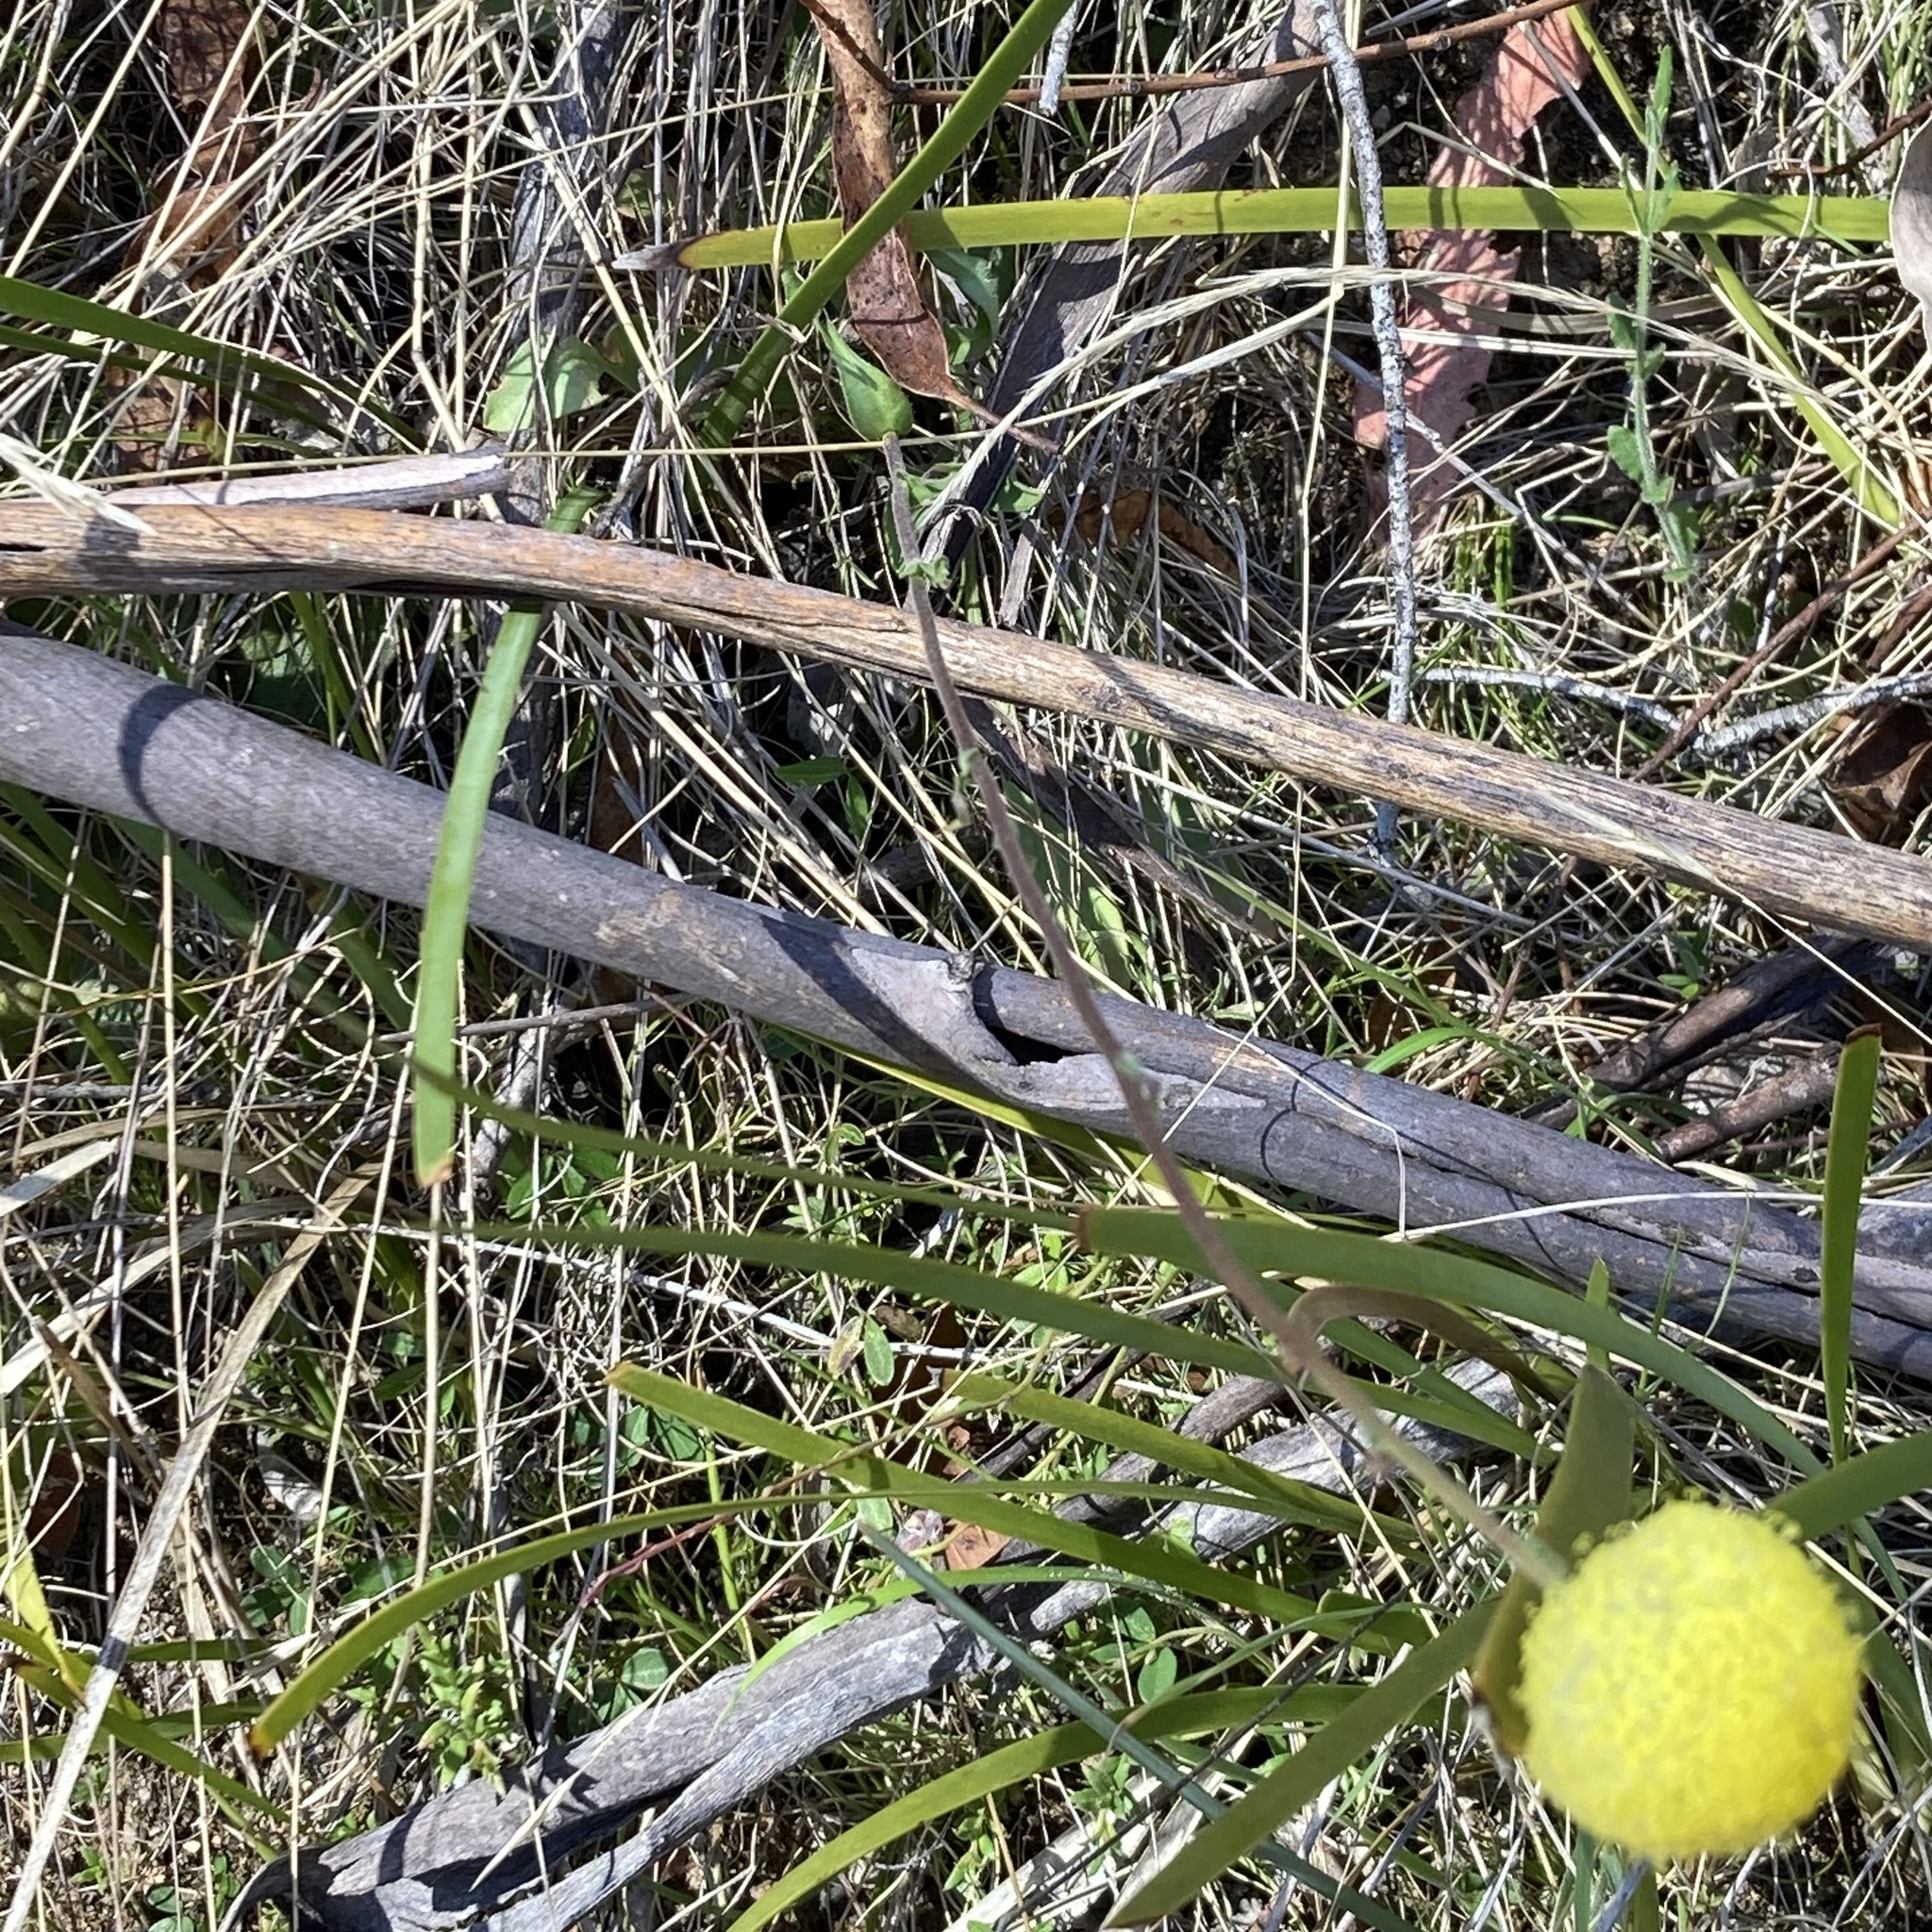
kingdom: Plantae
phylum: Tracheophyta
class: Magnoliopsida
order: Asterales
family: Asteraceae
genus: Craspedia
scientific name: Craspedia variabilis
